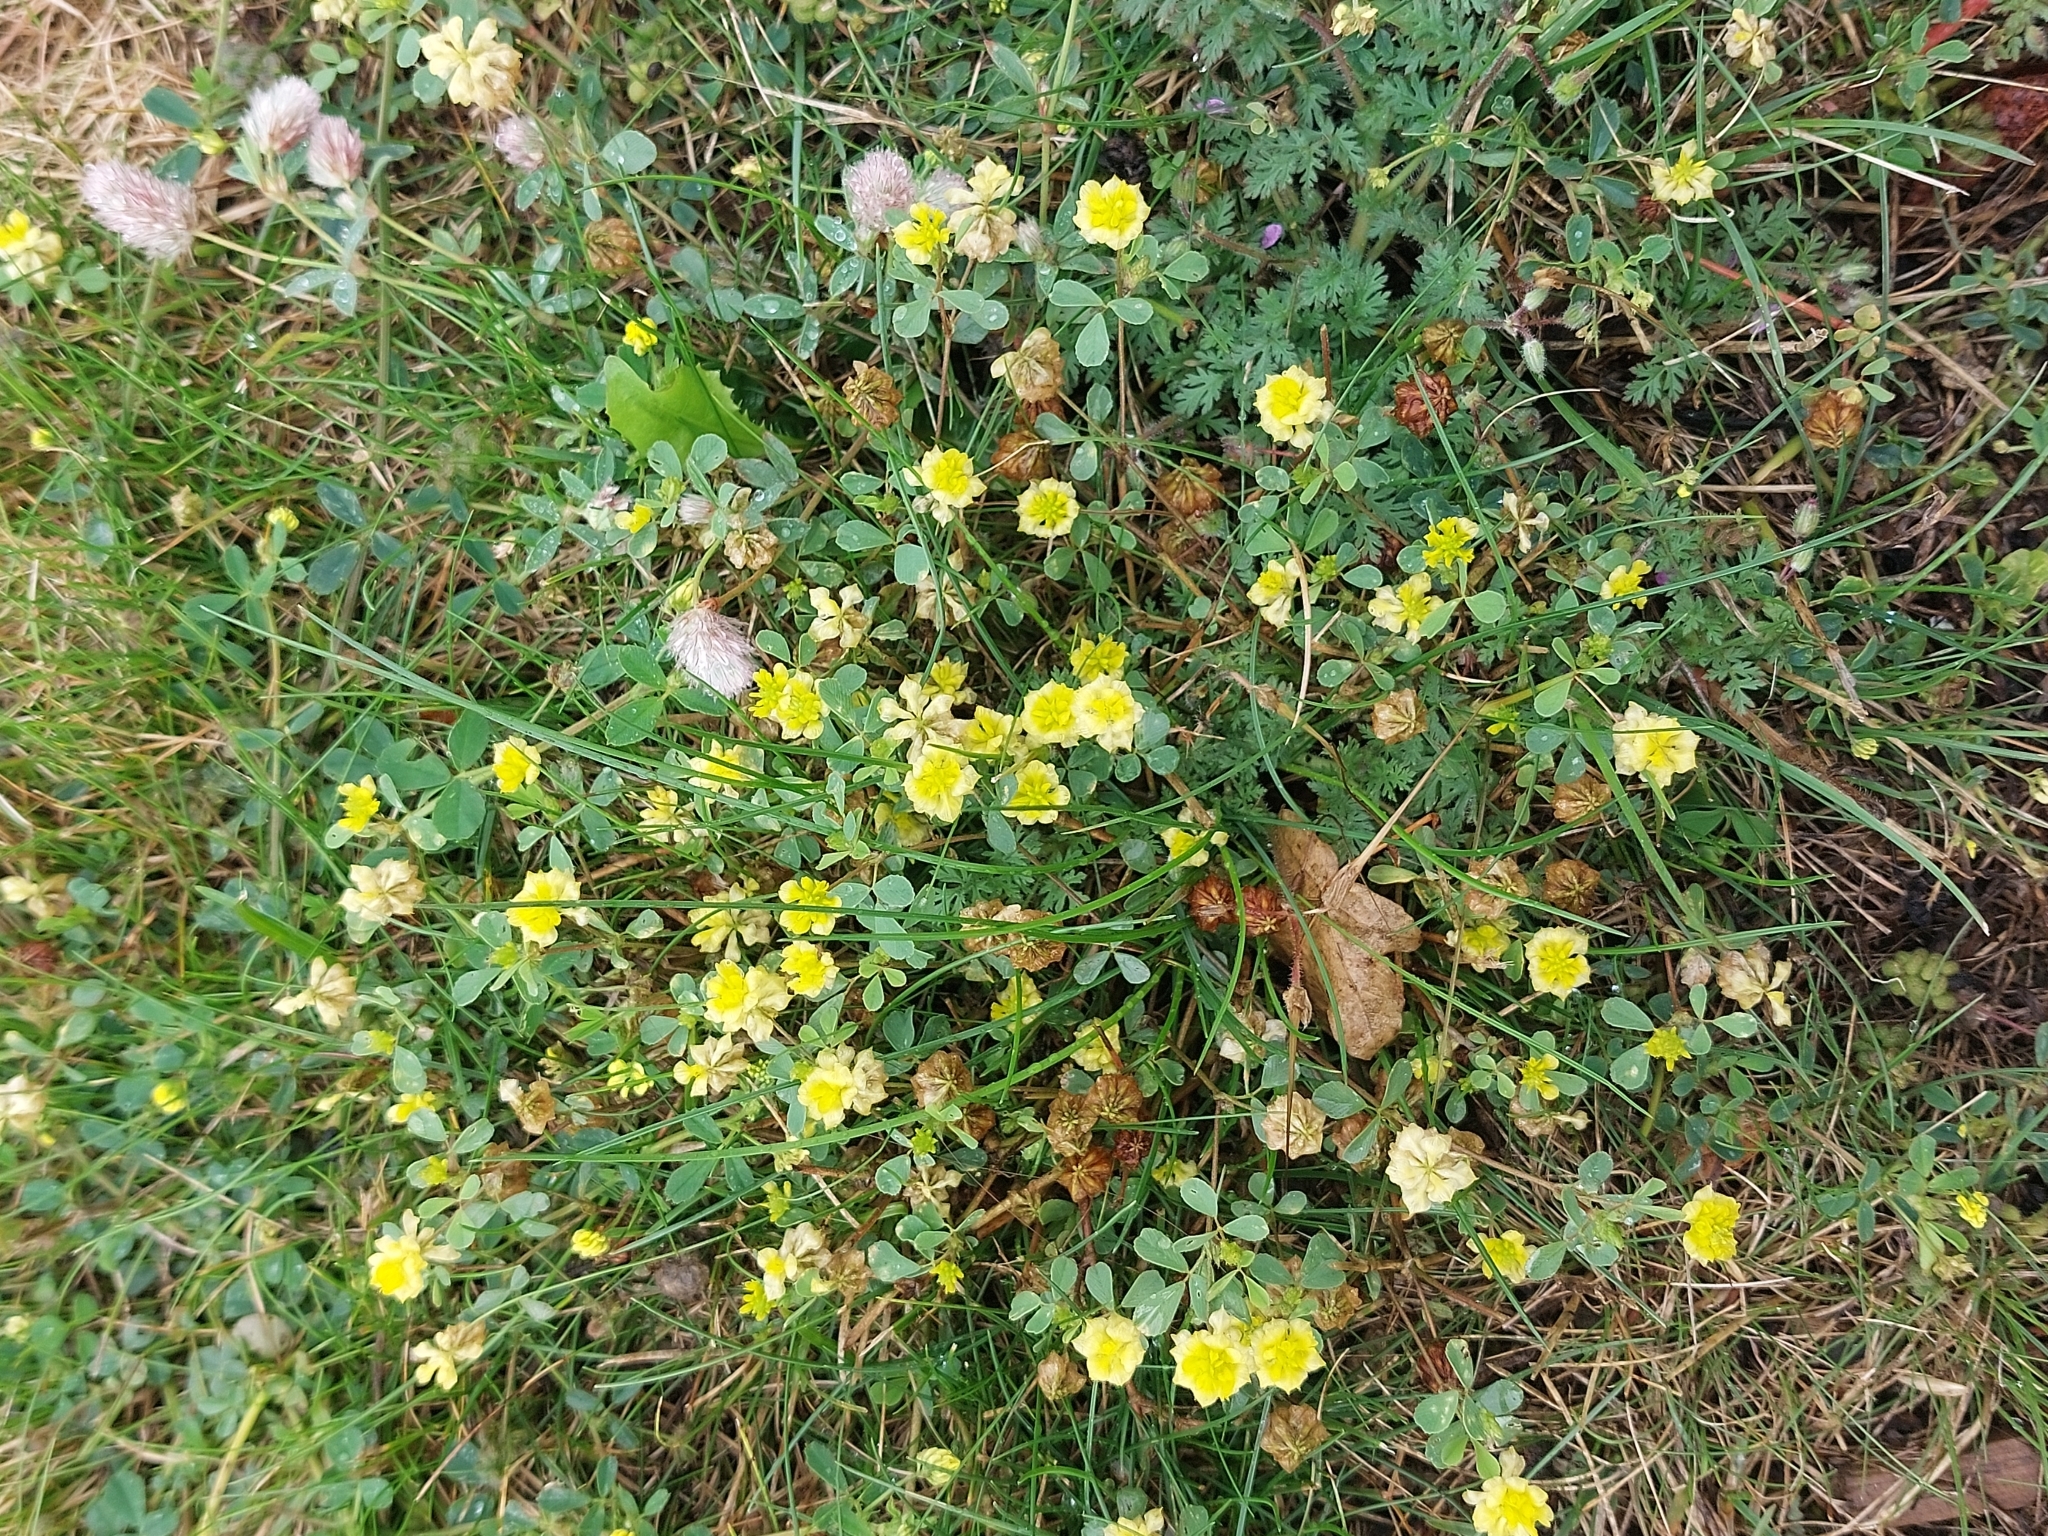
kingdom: Plantae
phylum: Tracheophyta
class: Magnoliopsida
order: Fabales
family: Fabaceae
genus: Trifolium
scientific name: Trifolium campestre
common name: Field clover
